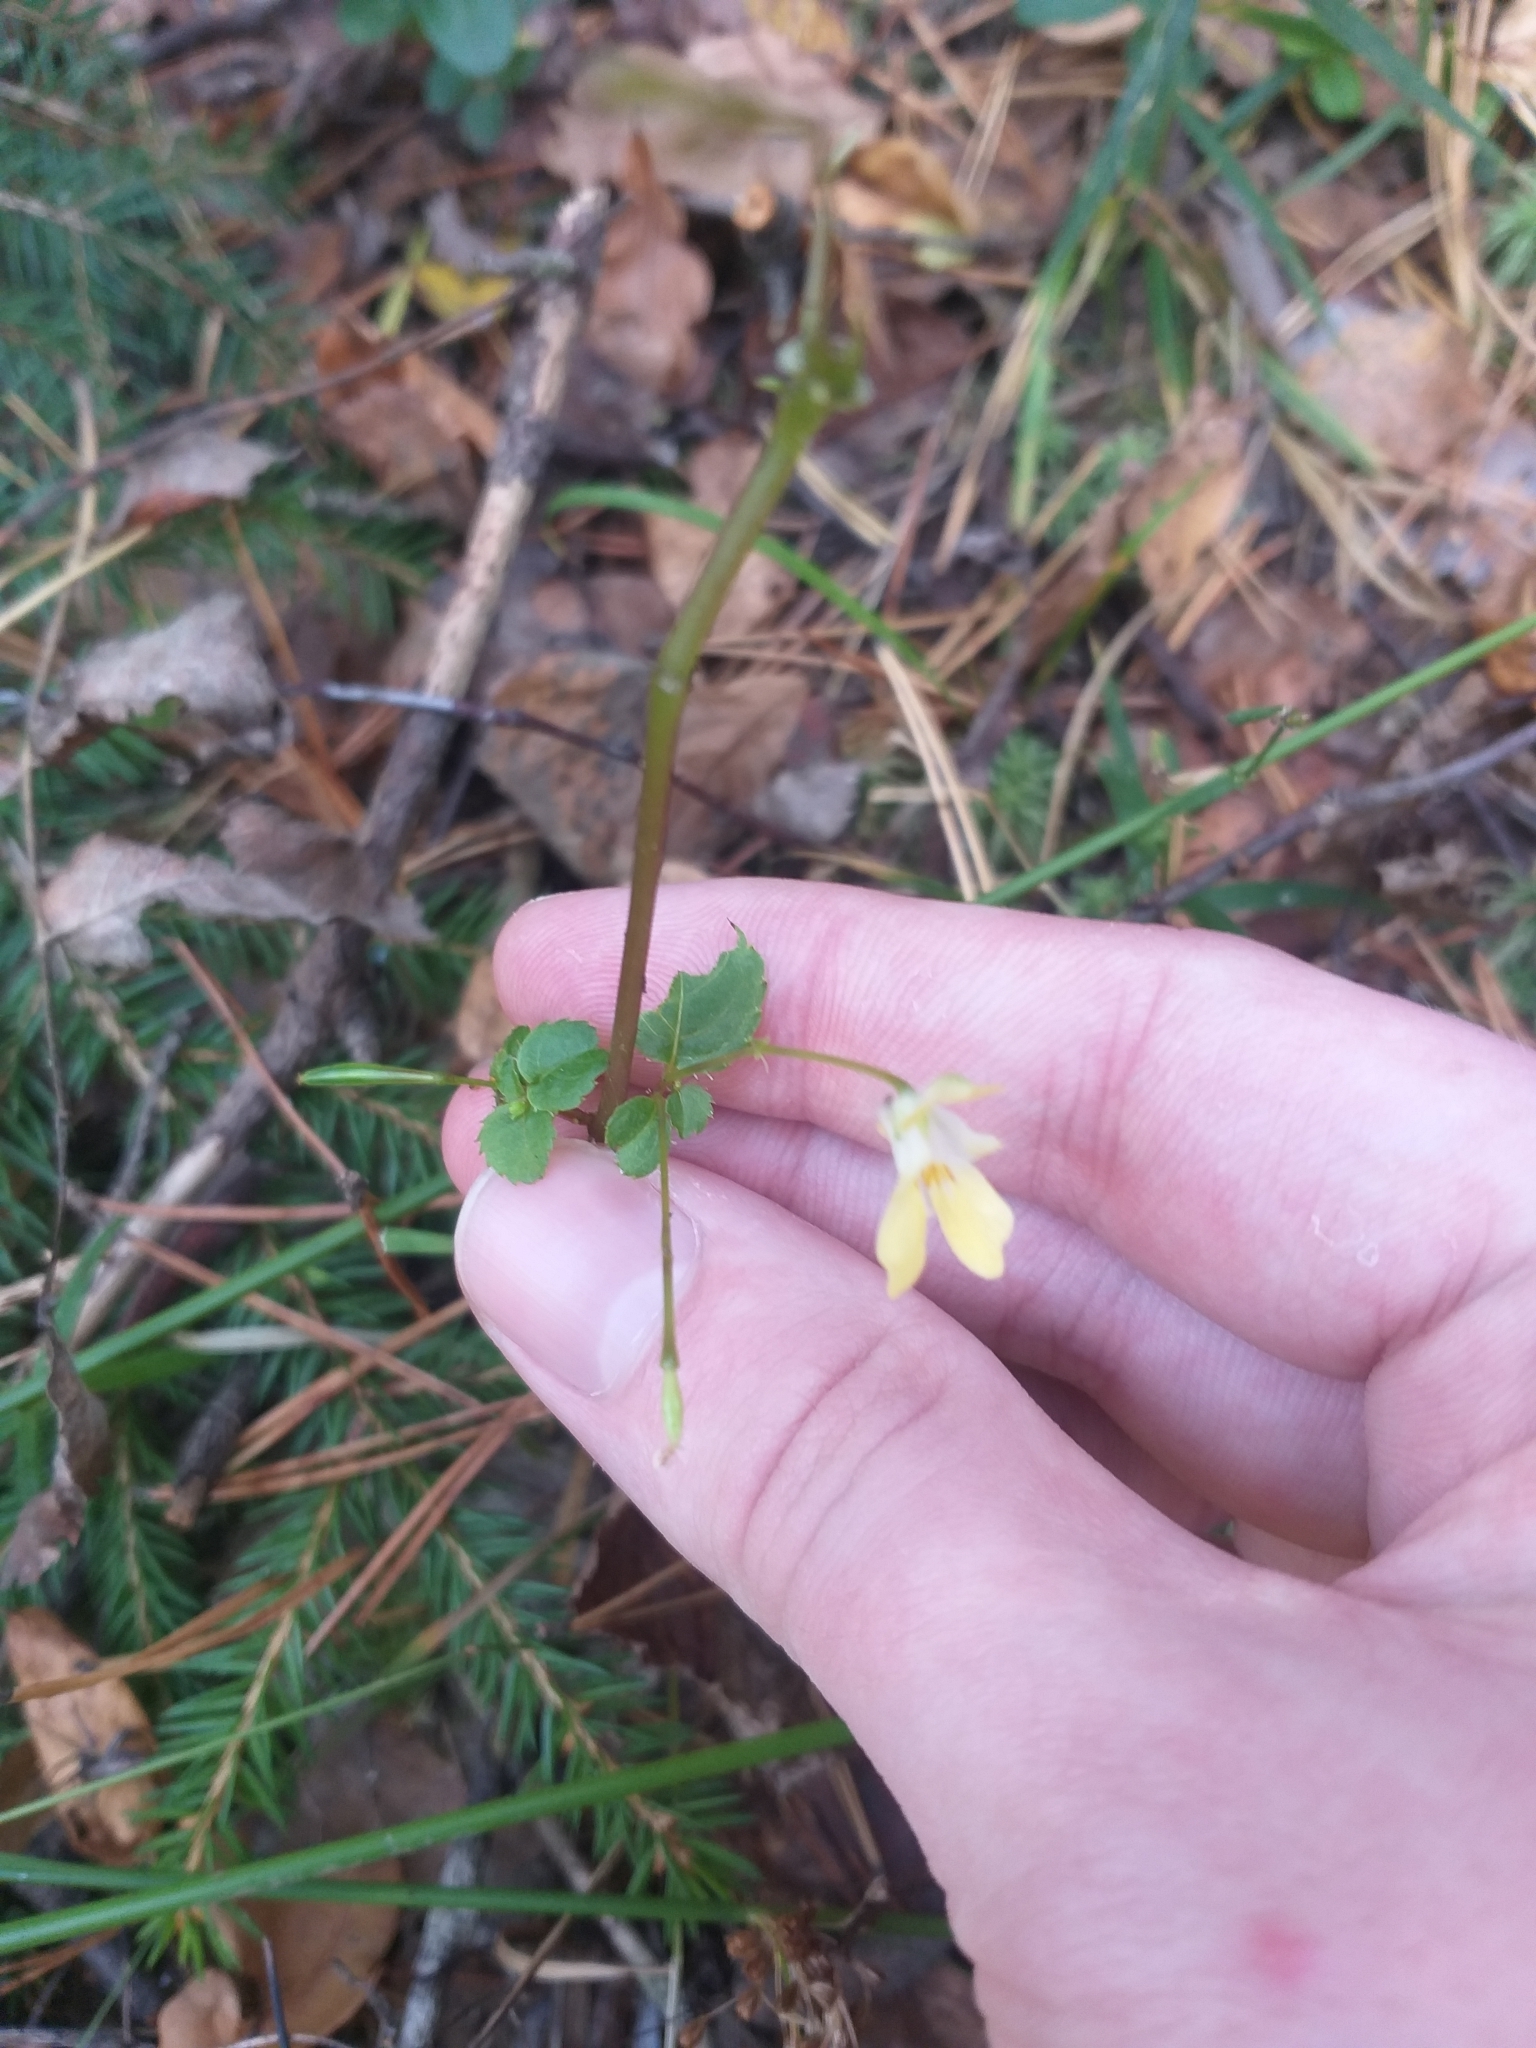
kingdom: Plantae
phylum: Tracheophyta
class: Magnoliopsida
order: Ericales
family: Balsaminaceae
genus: Impatiens
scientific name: Impatiens parviflora
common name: Small balsam
